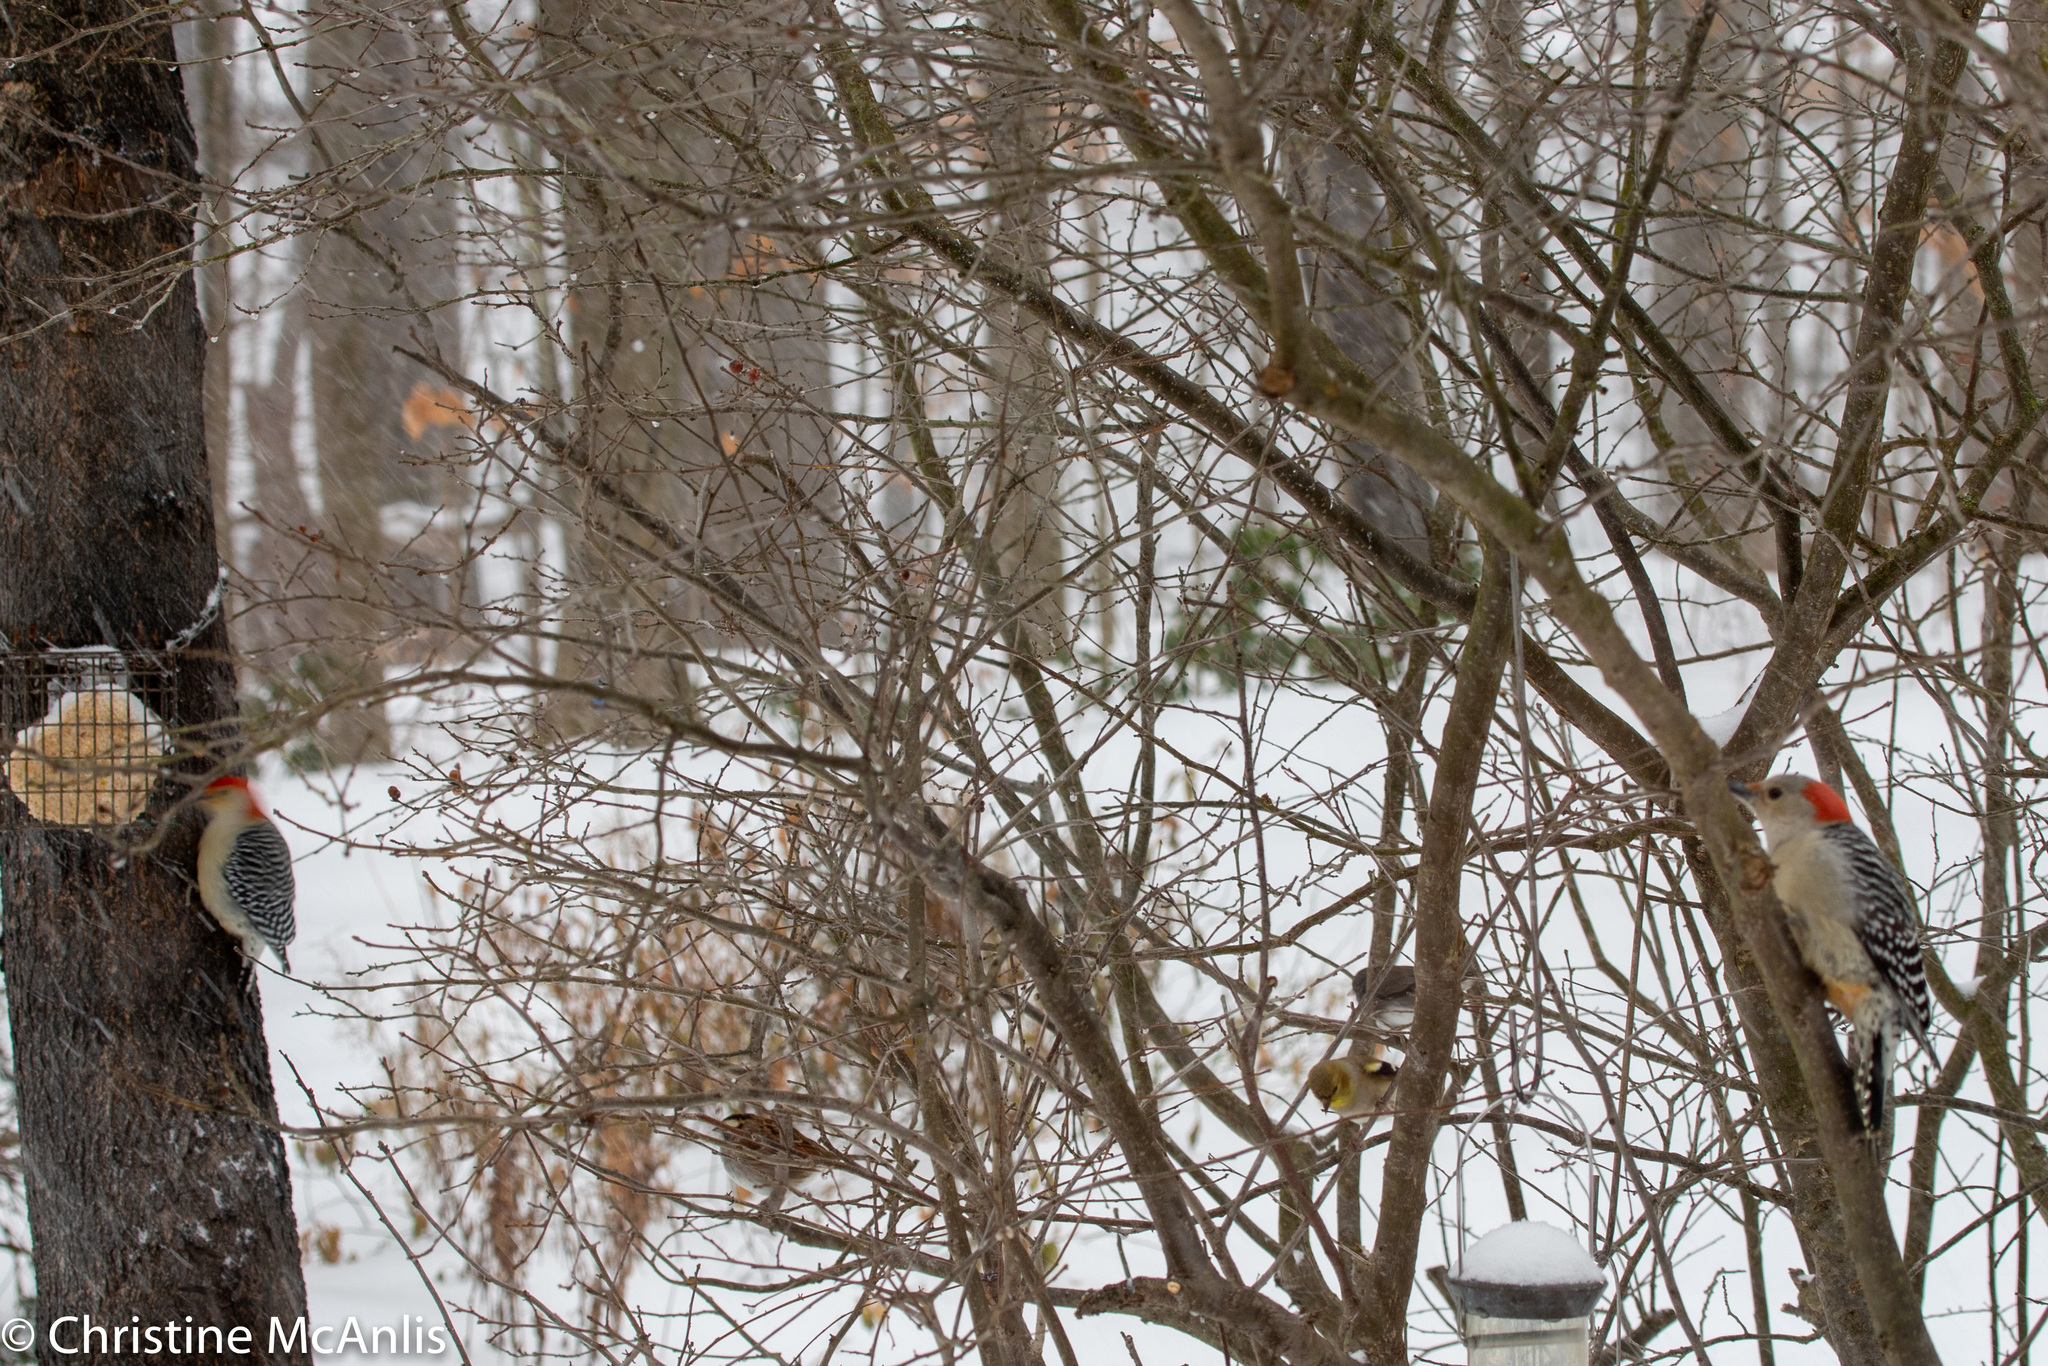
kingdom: Animalia
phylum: Chordata
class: Aves
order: Piciformes
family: Picidae
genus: Melanerpes
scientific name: Melanerpes carolinus
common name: Red-bellied woodpecker
